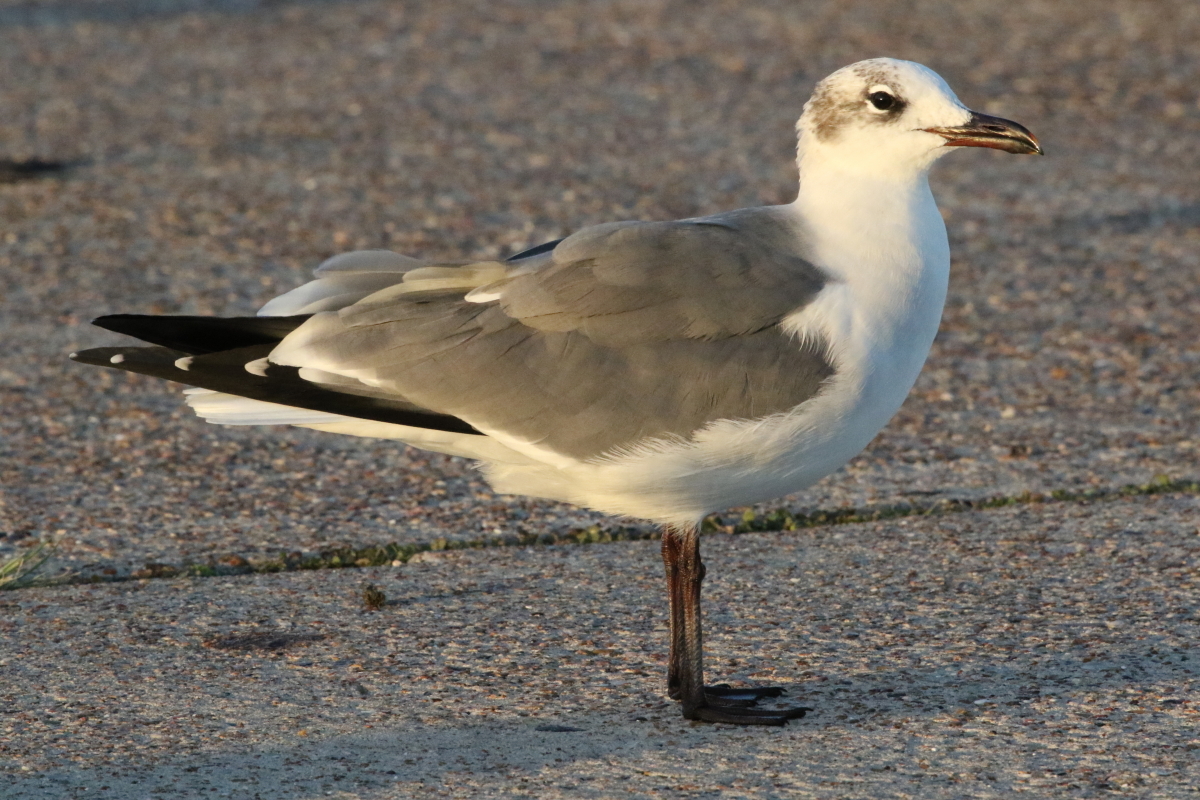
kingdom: Animalia
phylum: Chordata
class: Aves
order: Charadriiformes
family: Laridae
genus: Leucophaeus
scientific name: Leucophaeus atricilla
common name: Laughing gull
